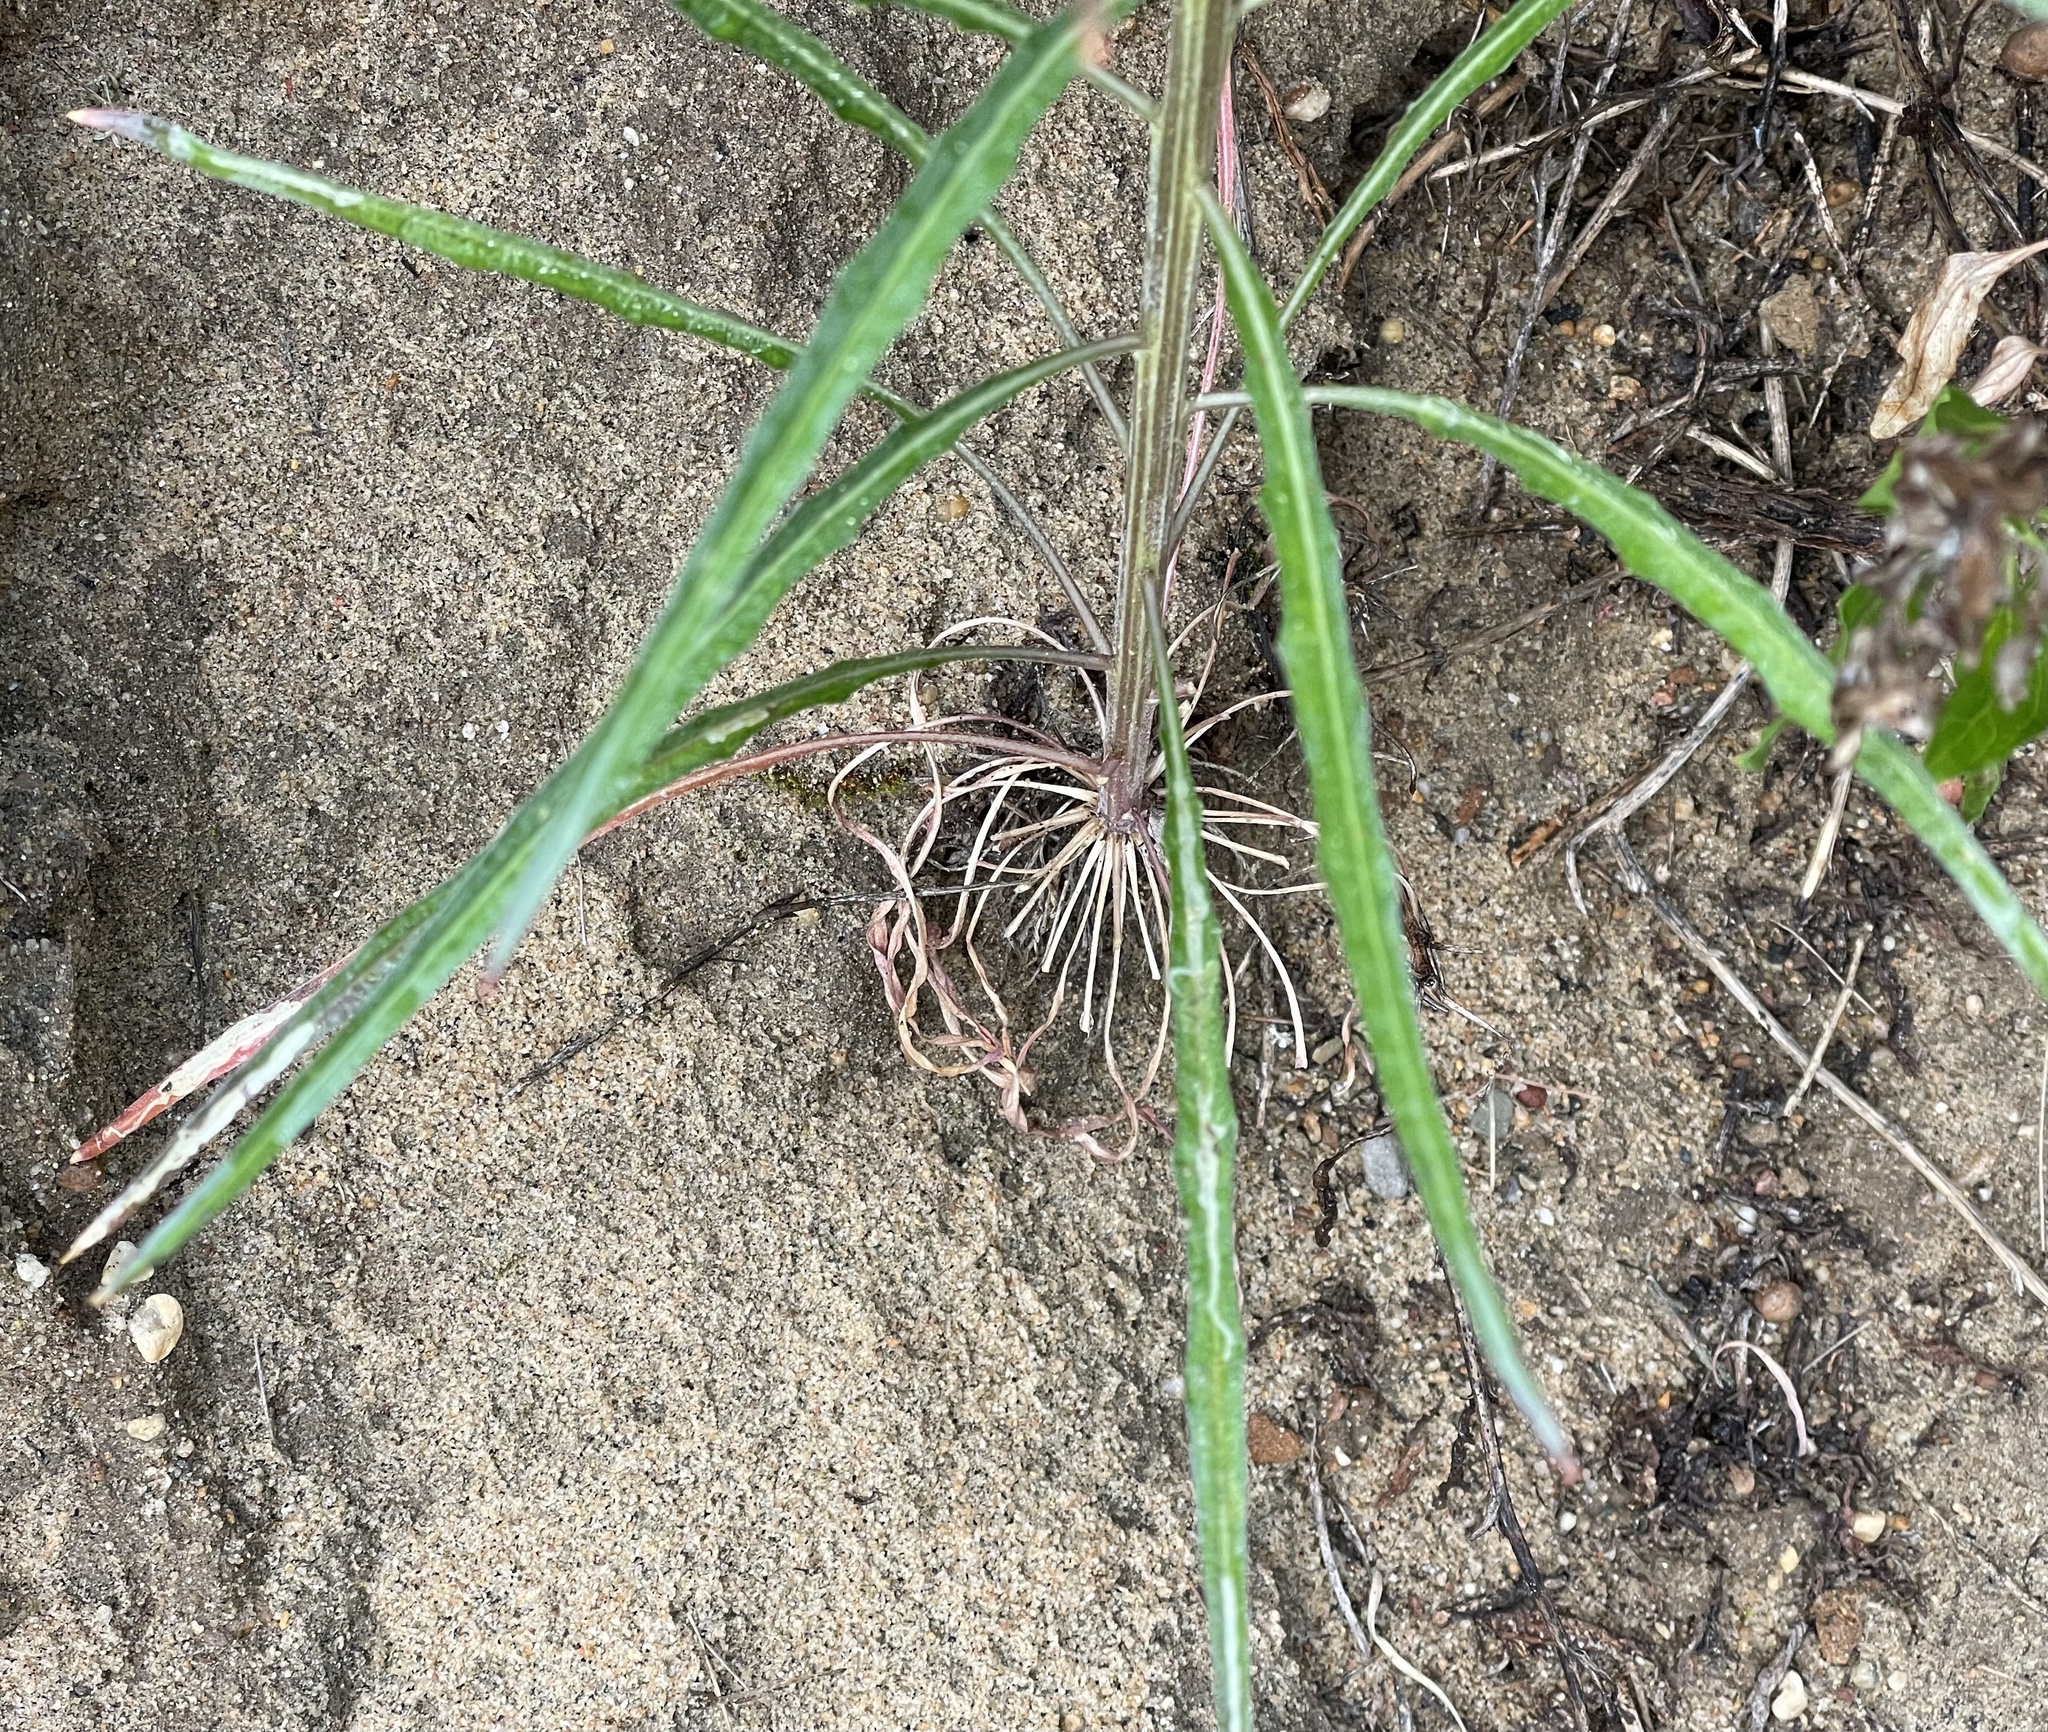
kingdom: Plantae
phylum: Tracheophyta
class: Magnoliopsida
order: Brassicales
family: Brassicaceae
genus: Erysimum
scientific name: Erysimum capitatum
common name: Western wallflower
